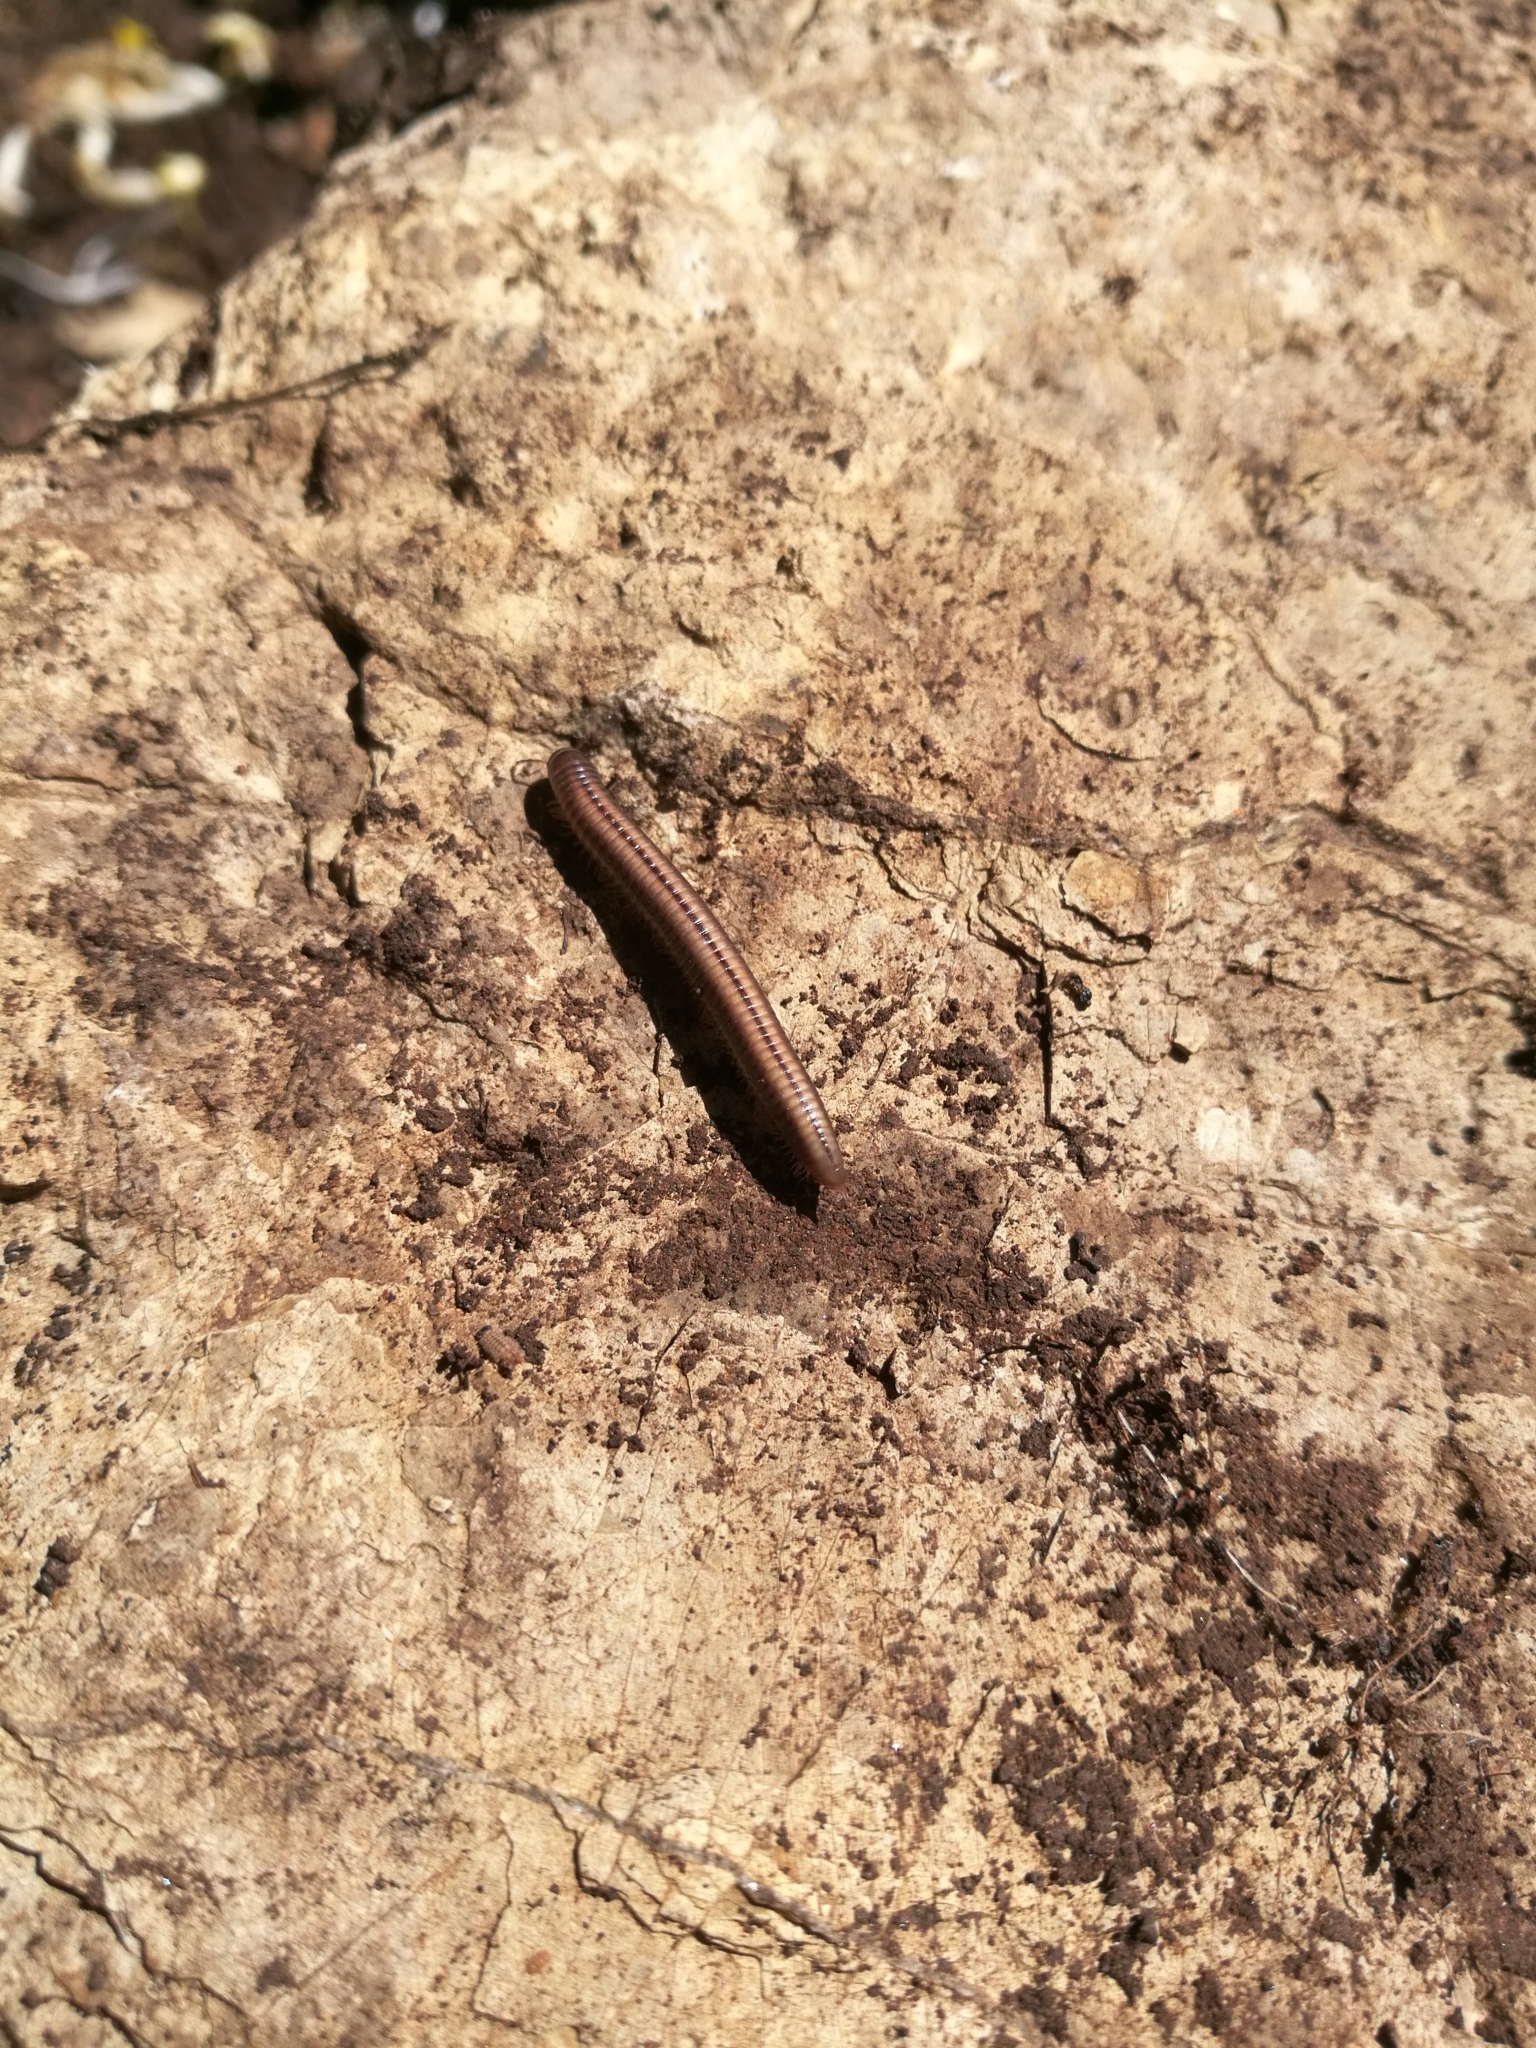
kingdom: Animalia
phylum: Arthropoda
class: Diplopoda
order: Julida
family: Julidae
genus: Ommatoiulus
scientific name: Ommatoiulus sabulosus
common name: Striped millipede
